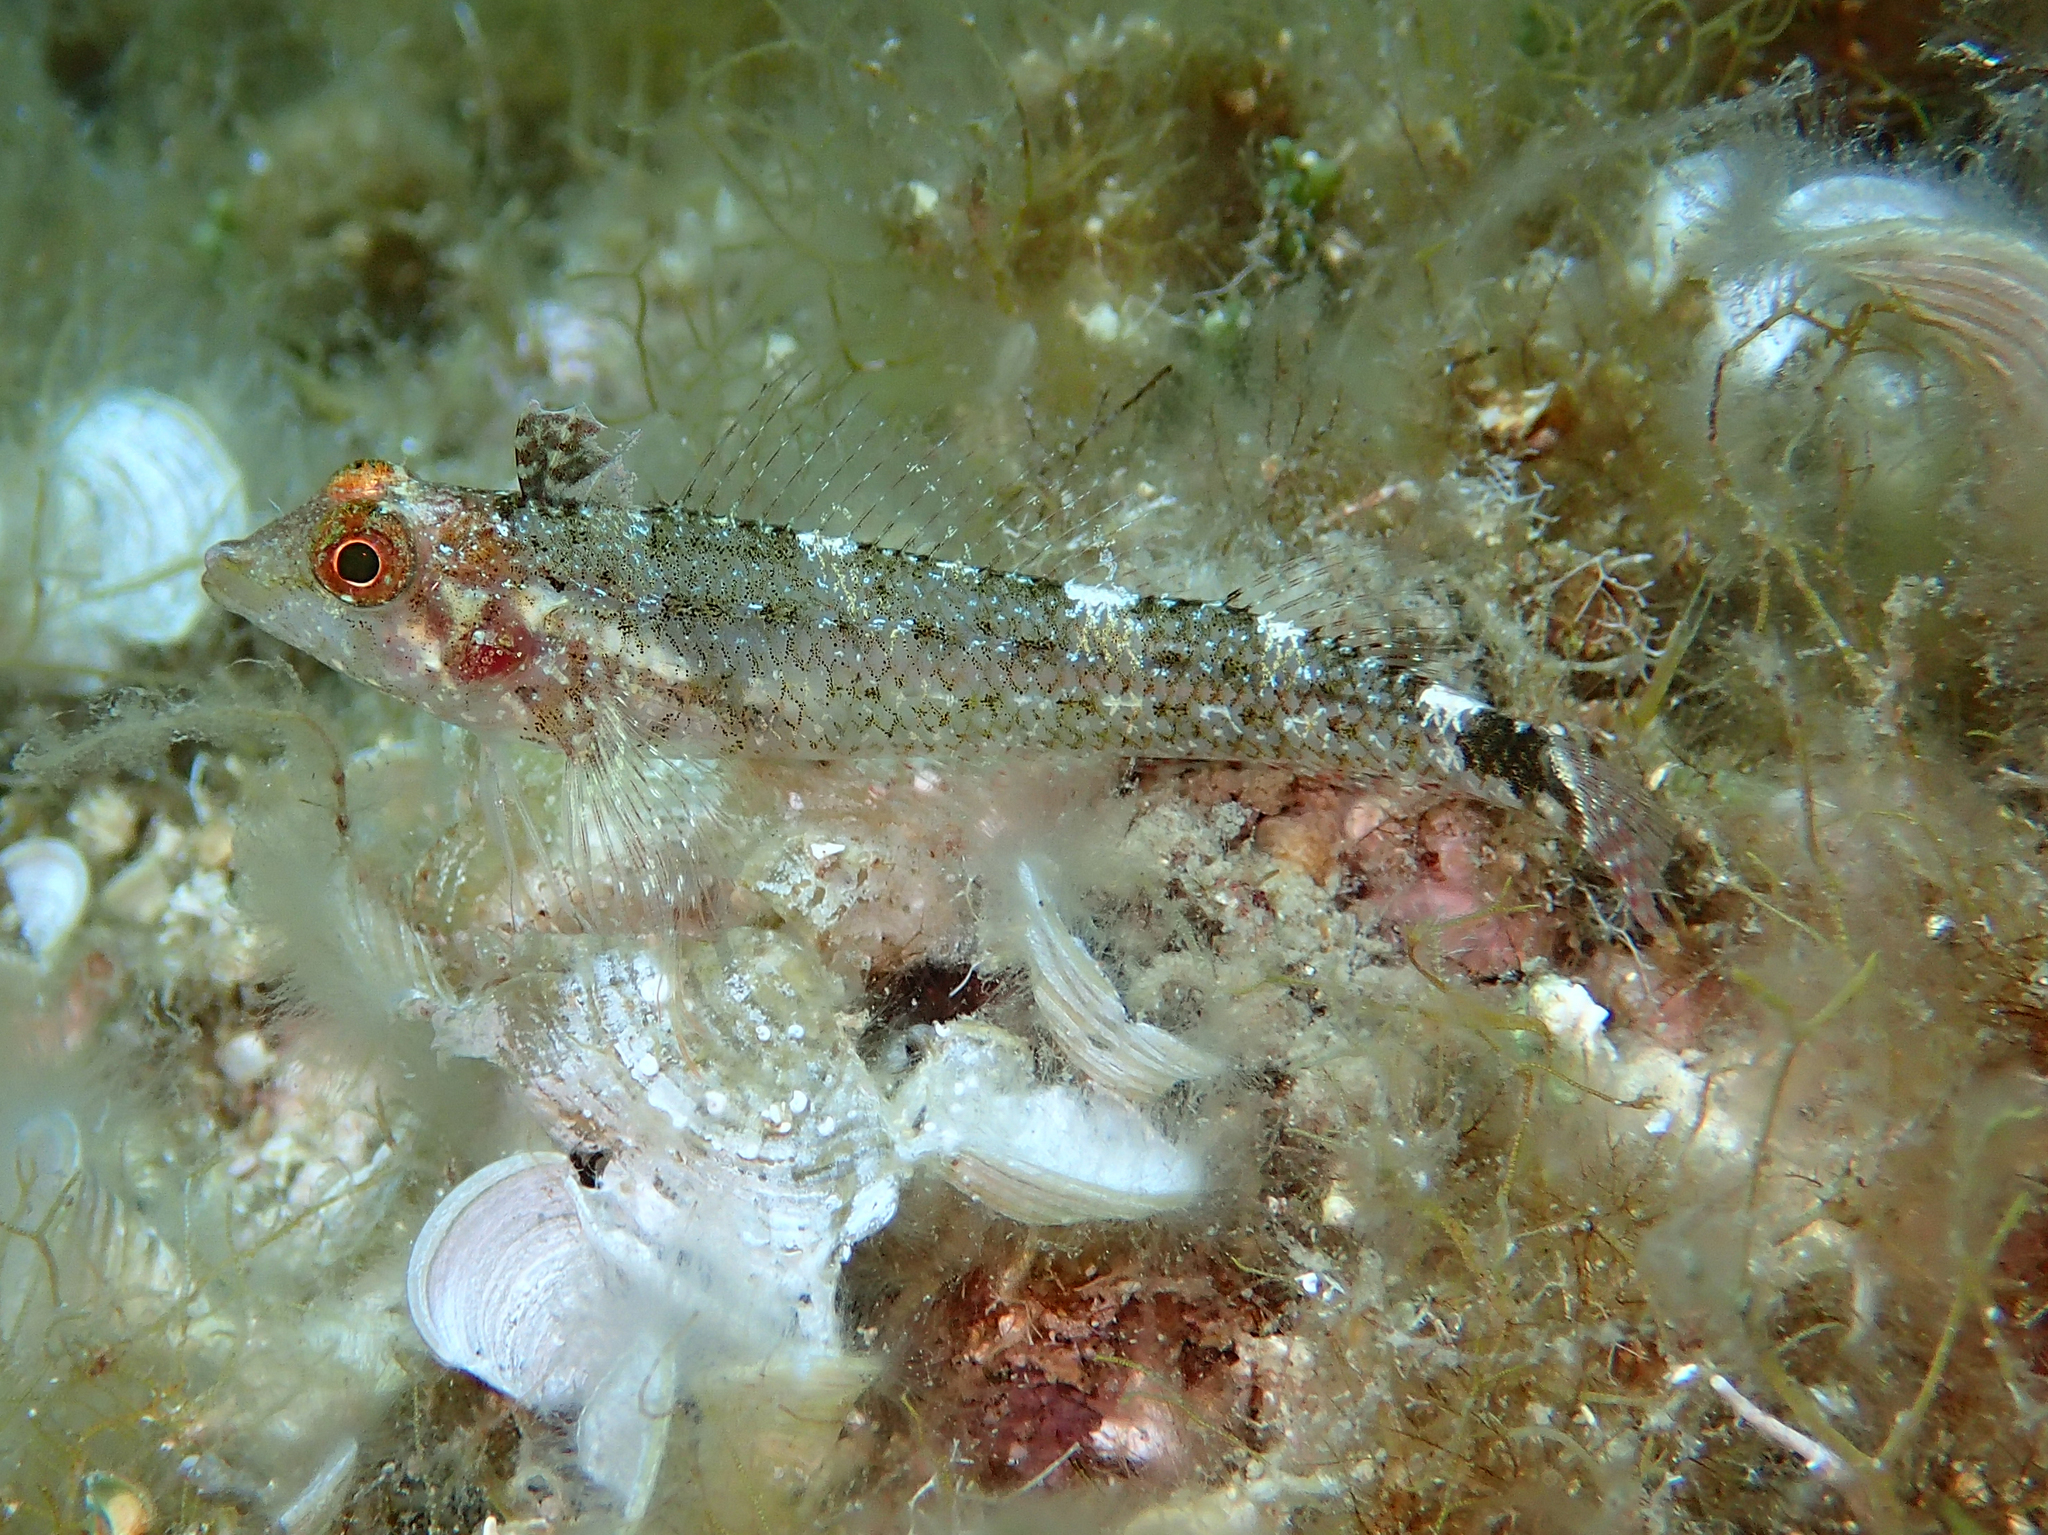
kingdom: Animalia
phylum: Chordata
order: Perciformes
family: Tripterygiidae
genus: Tripterygion
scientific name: Tripterygion delaisi
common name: Black-face blenny
